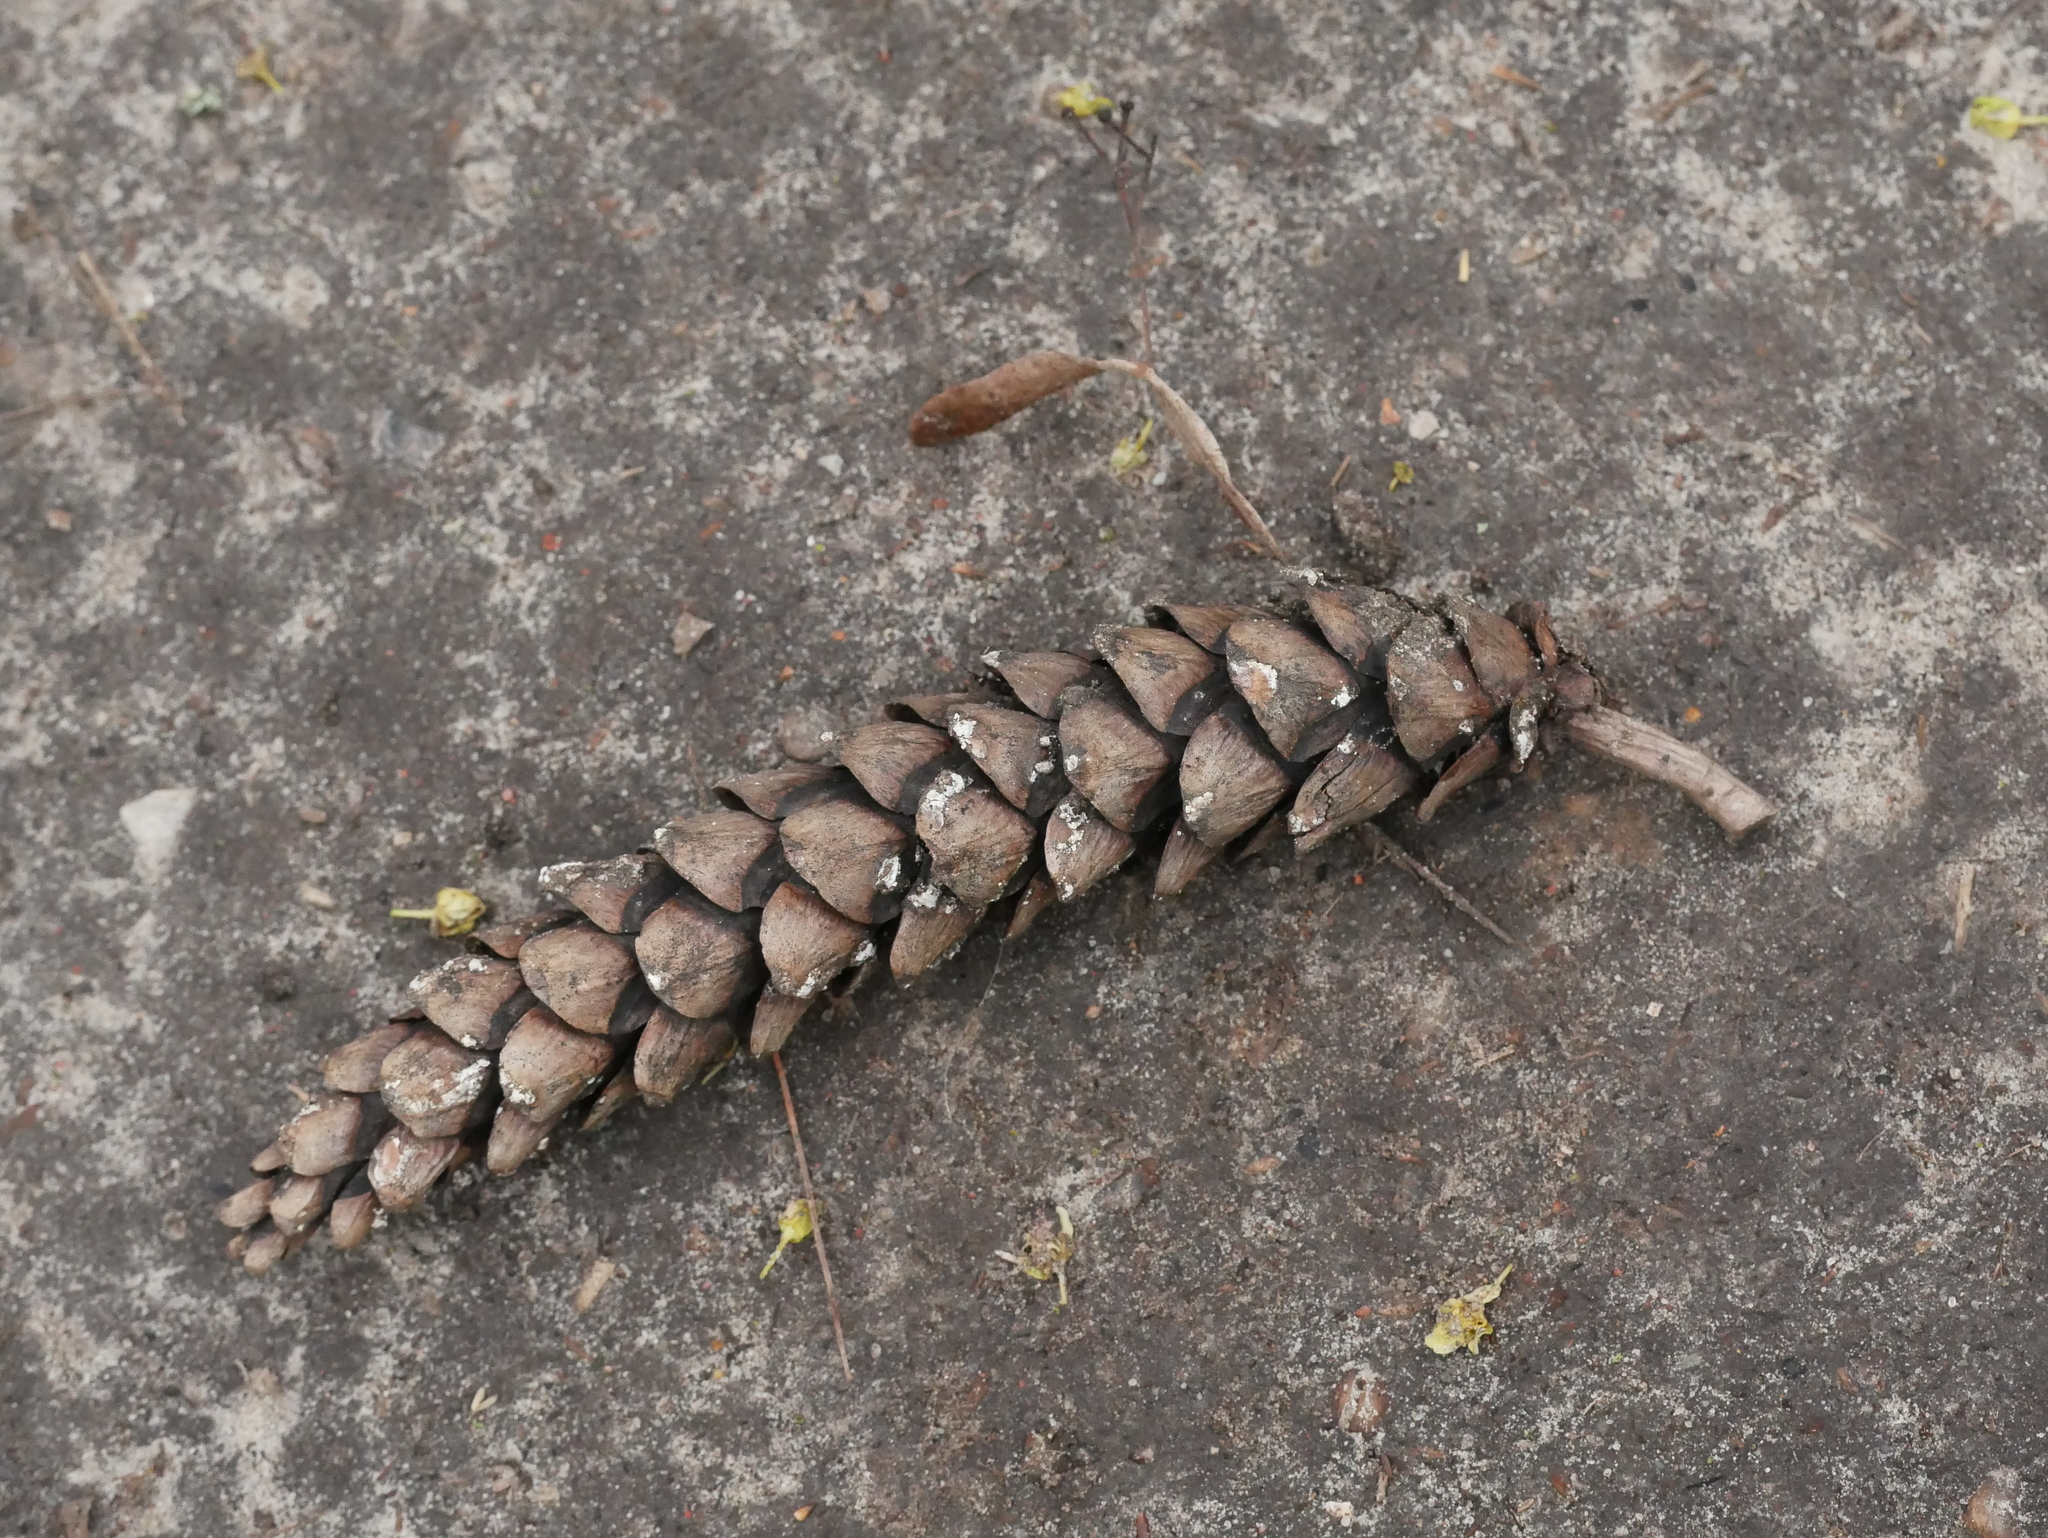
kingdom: Plantae
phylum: Tracheophyta
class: Pinopsida
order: Pinales
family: Pinaceae
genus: Pinus
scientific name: Pinus strobus
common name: Weymouth pine
